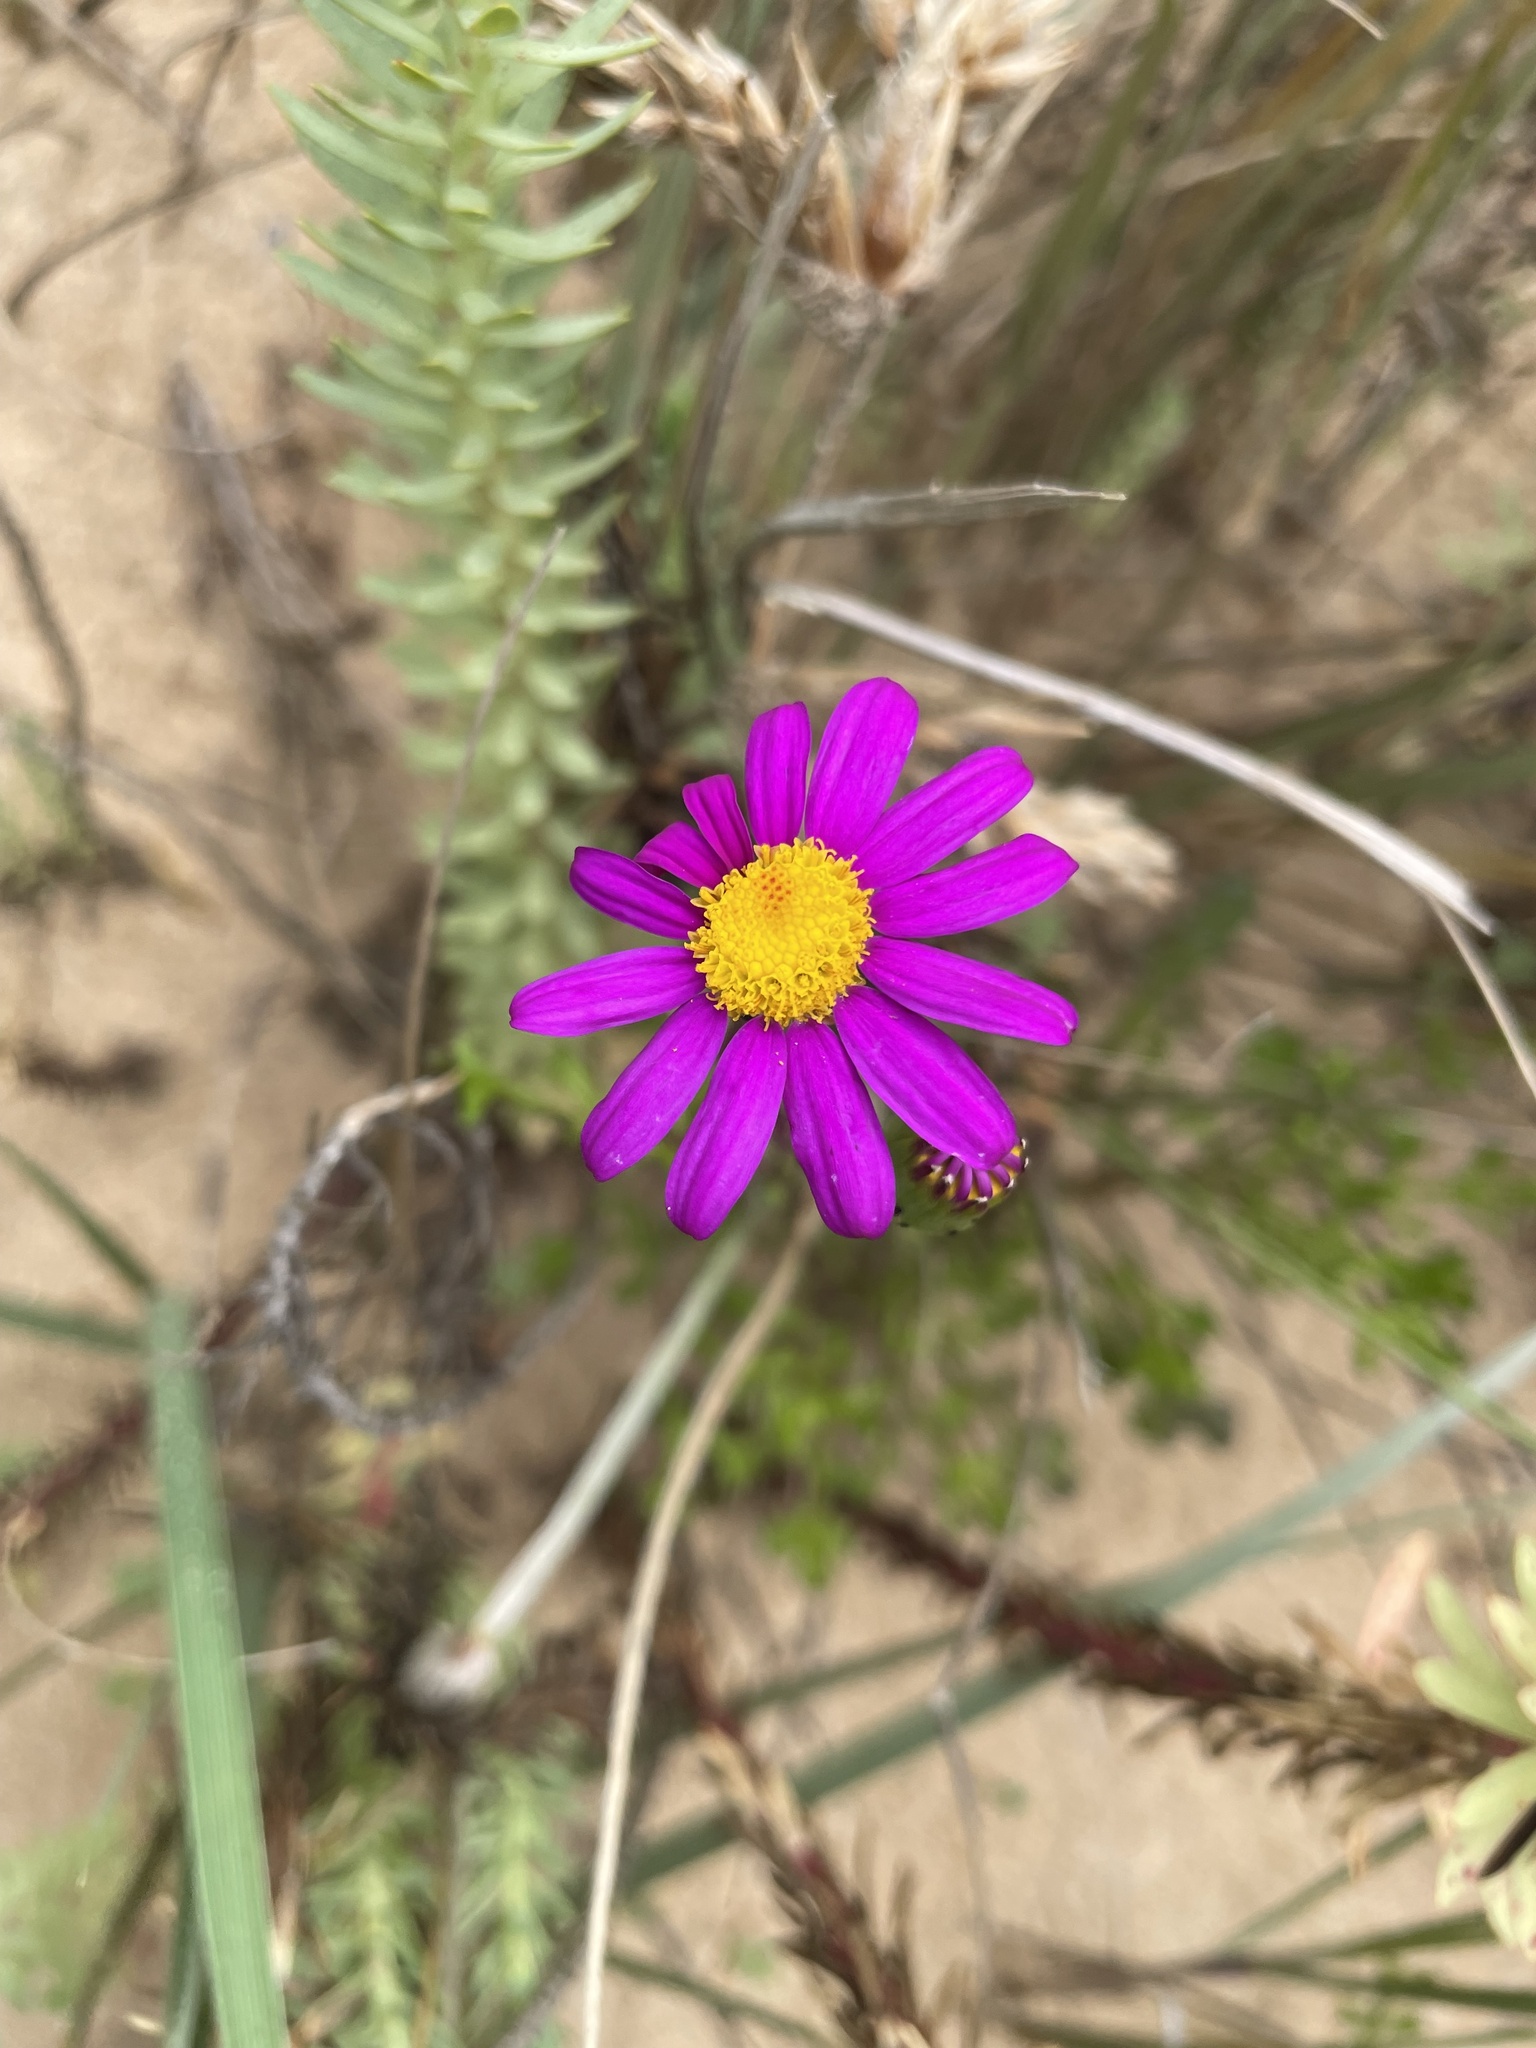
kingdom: Plantae
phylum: Tracheophyta
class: Magnoliopsida
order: Asterales
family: Asteraceae
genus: Senecio
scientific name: Senecio elegans
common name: Purple groundsel
